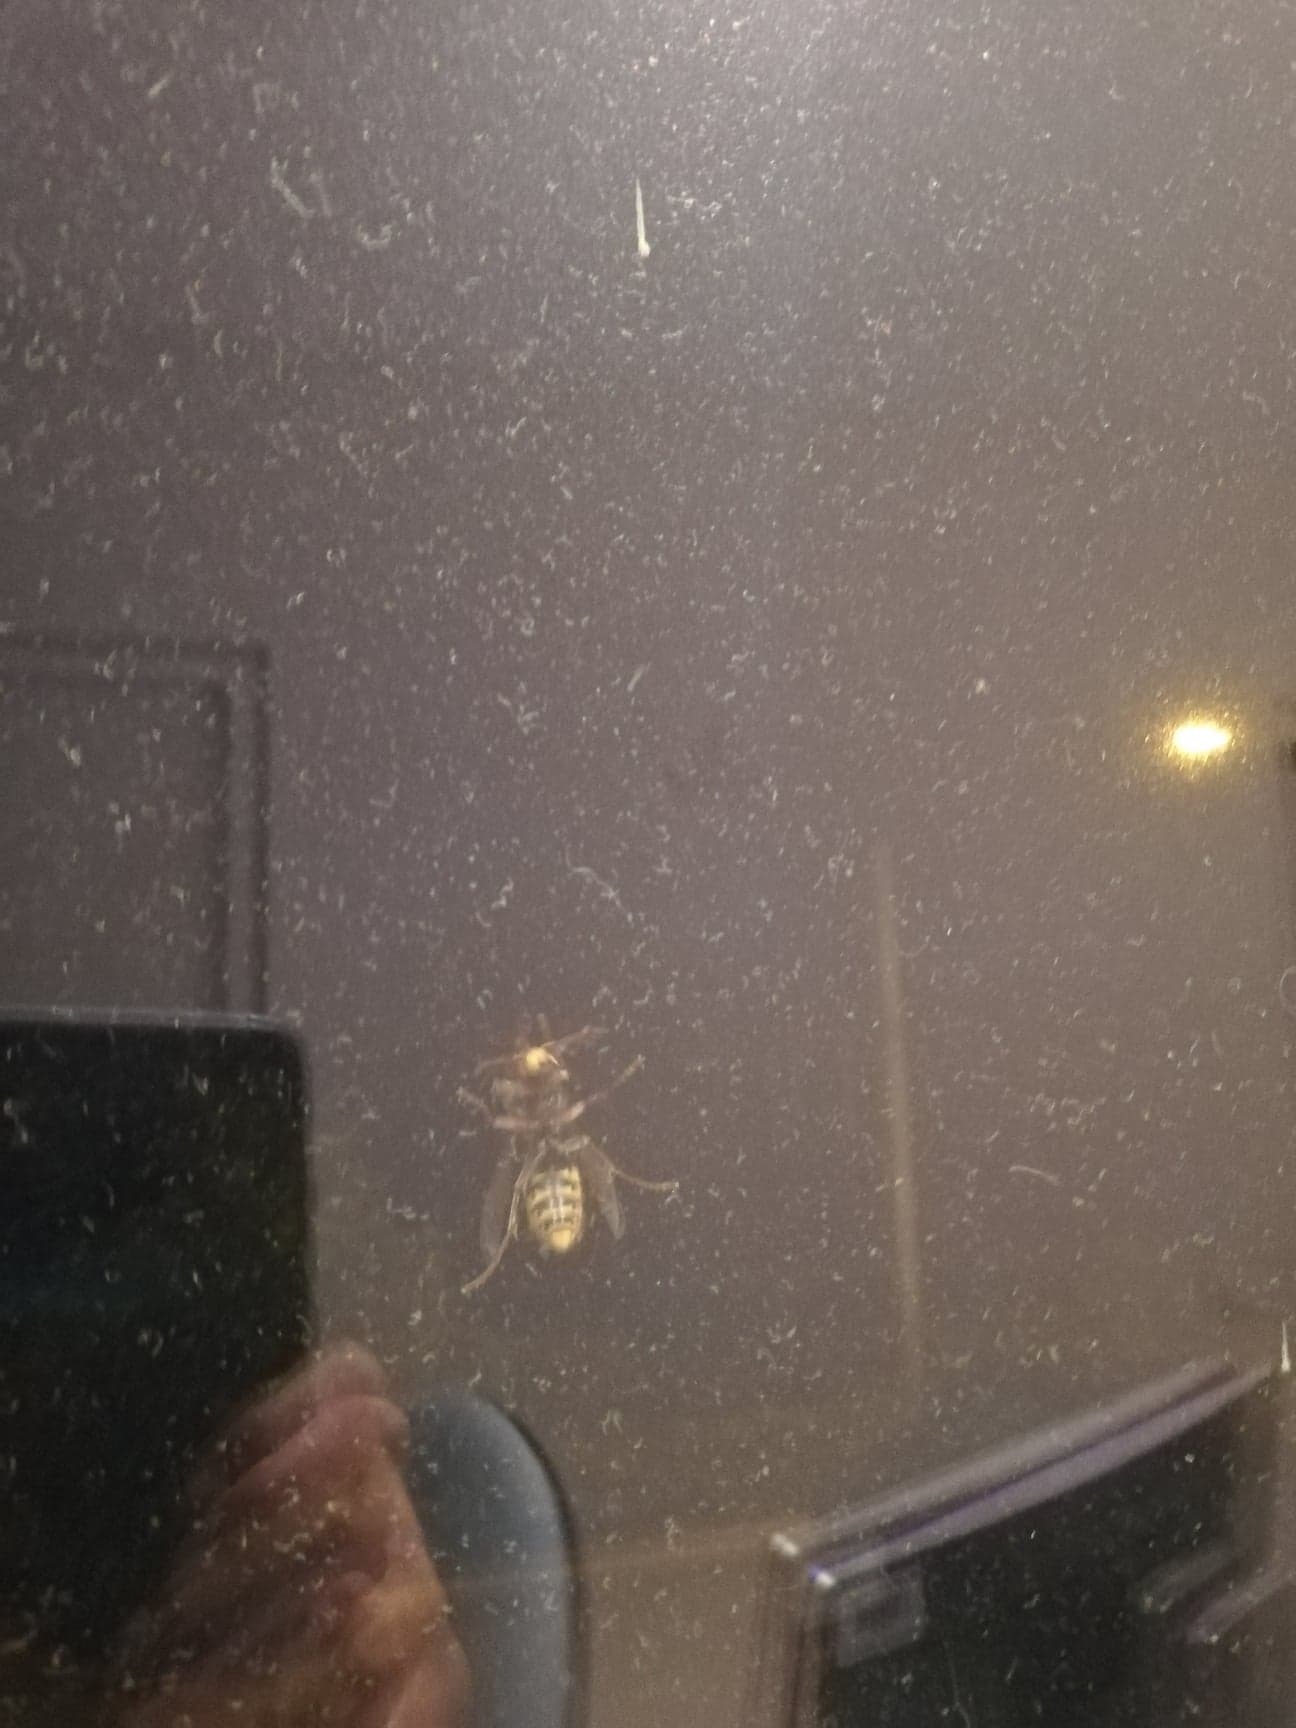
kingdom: Animalia
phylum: Arthropoda
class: Insecta
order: Hymenoptera
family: Vespidae
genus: Vespa
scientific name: Vespa crabro
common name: Hornet
